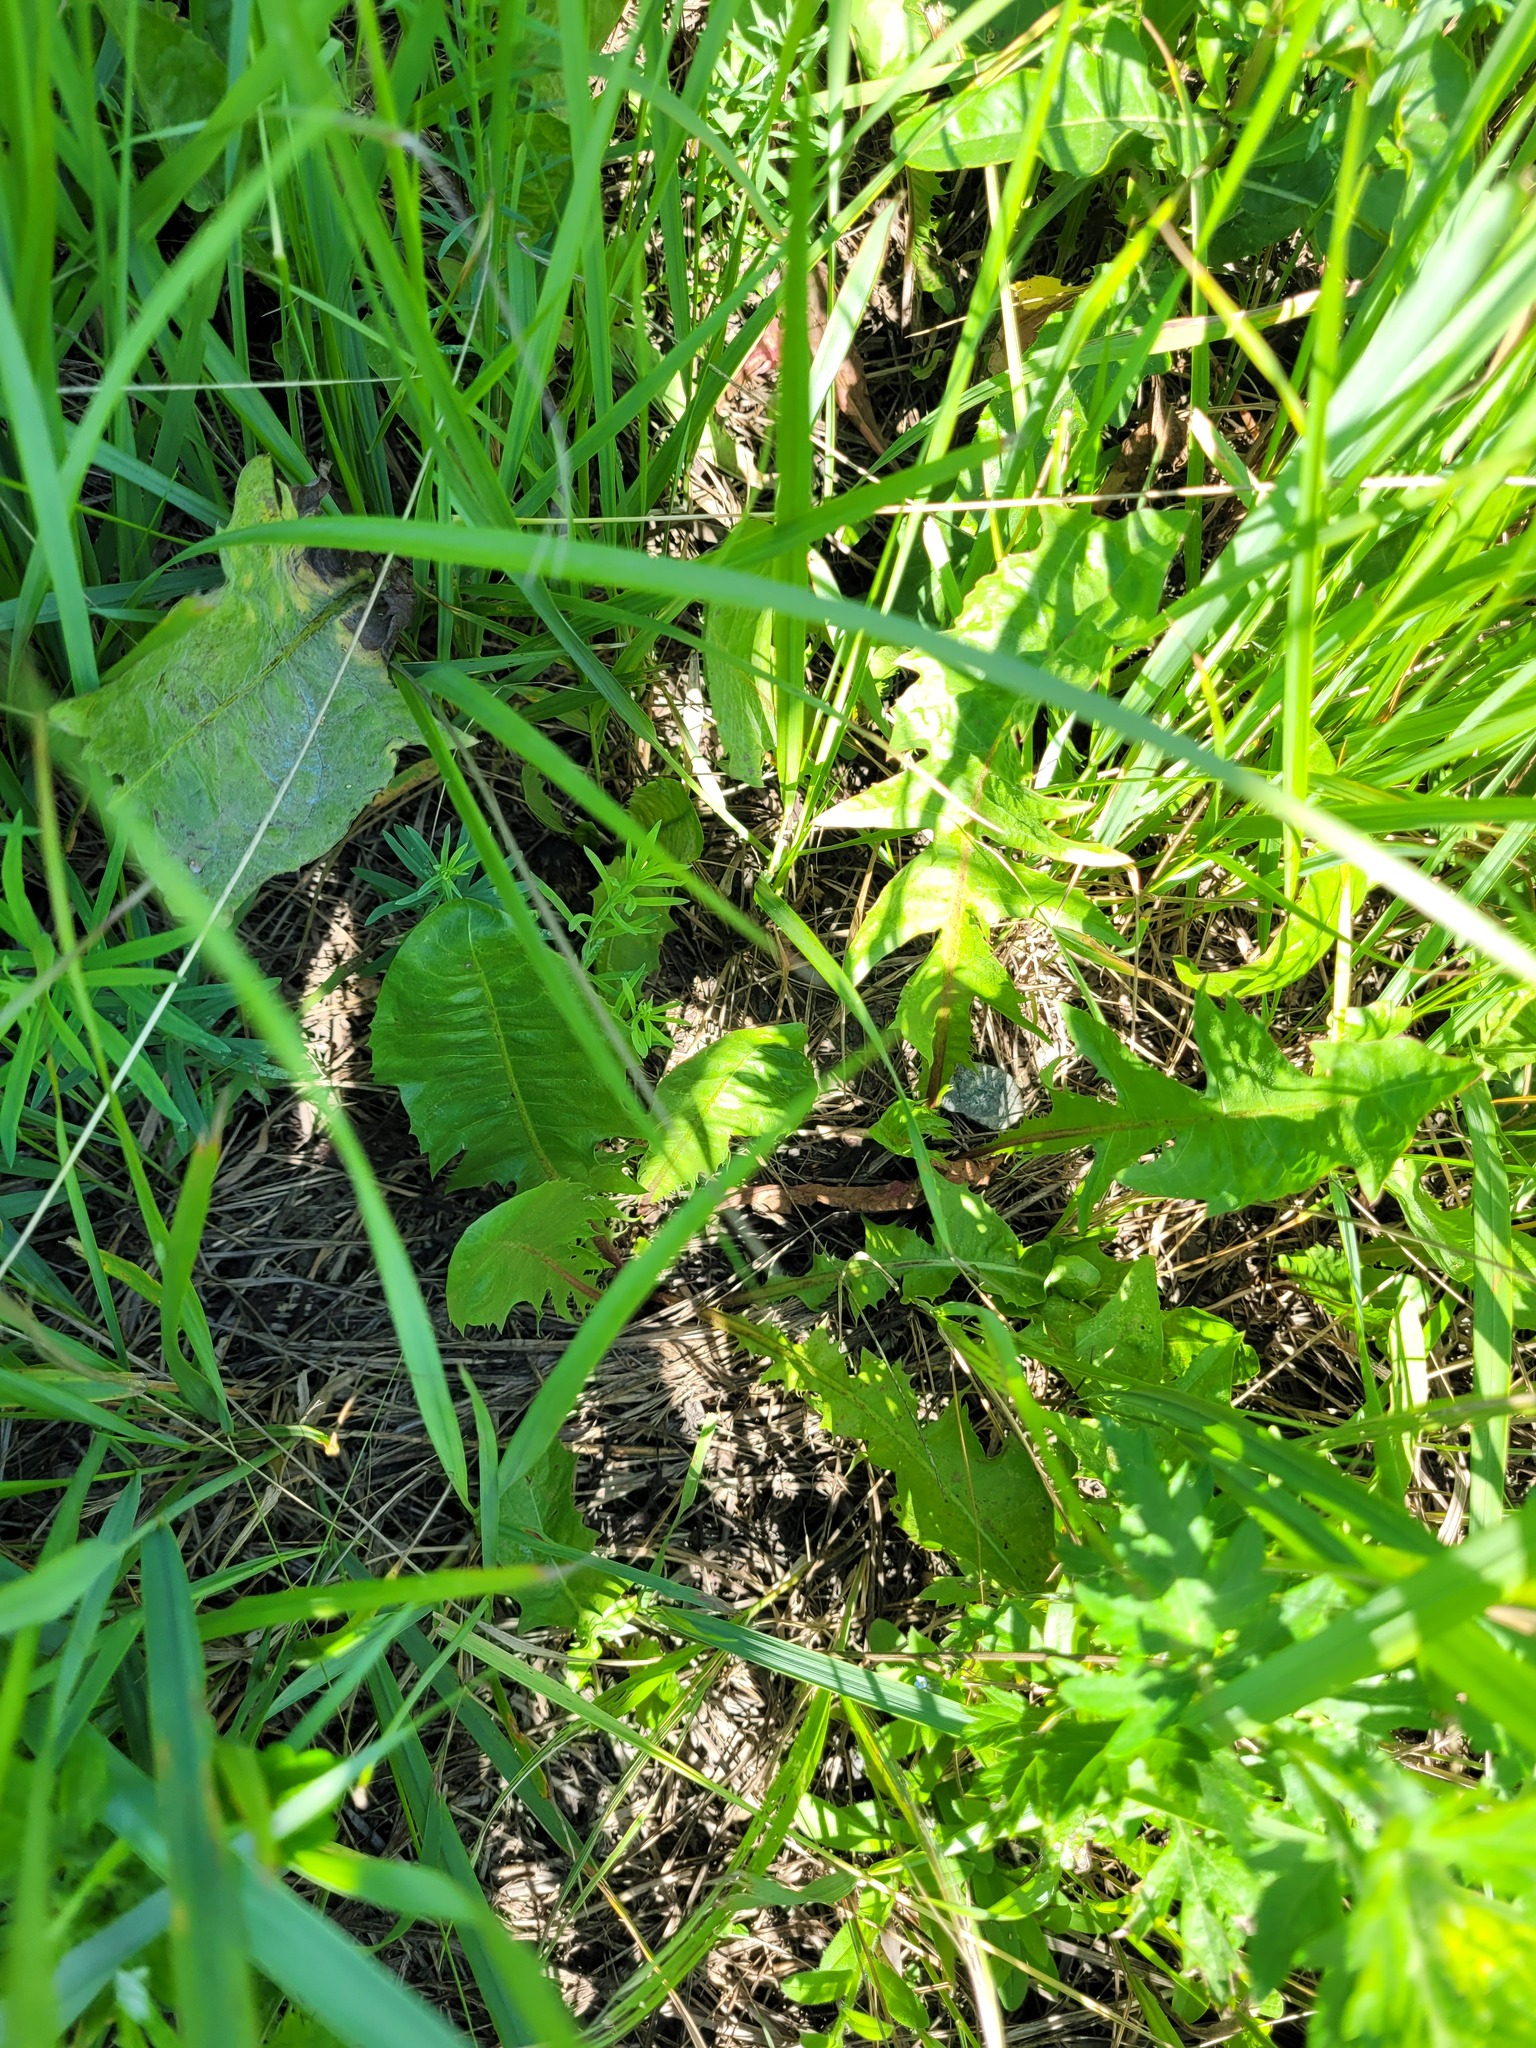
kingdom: Plantae
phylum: Tracheophyta
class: Magnoliopsida
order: Asterales
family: Asteraceae
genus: Taraxacum
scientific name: Taraxacum officinale
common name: Common dandelion
